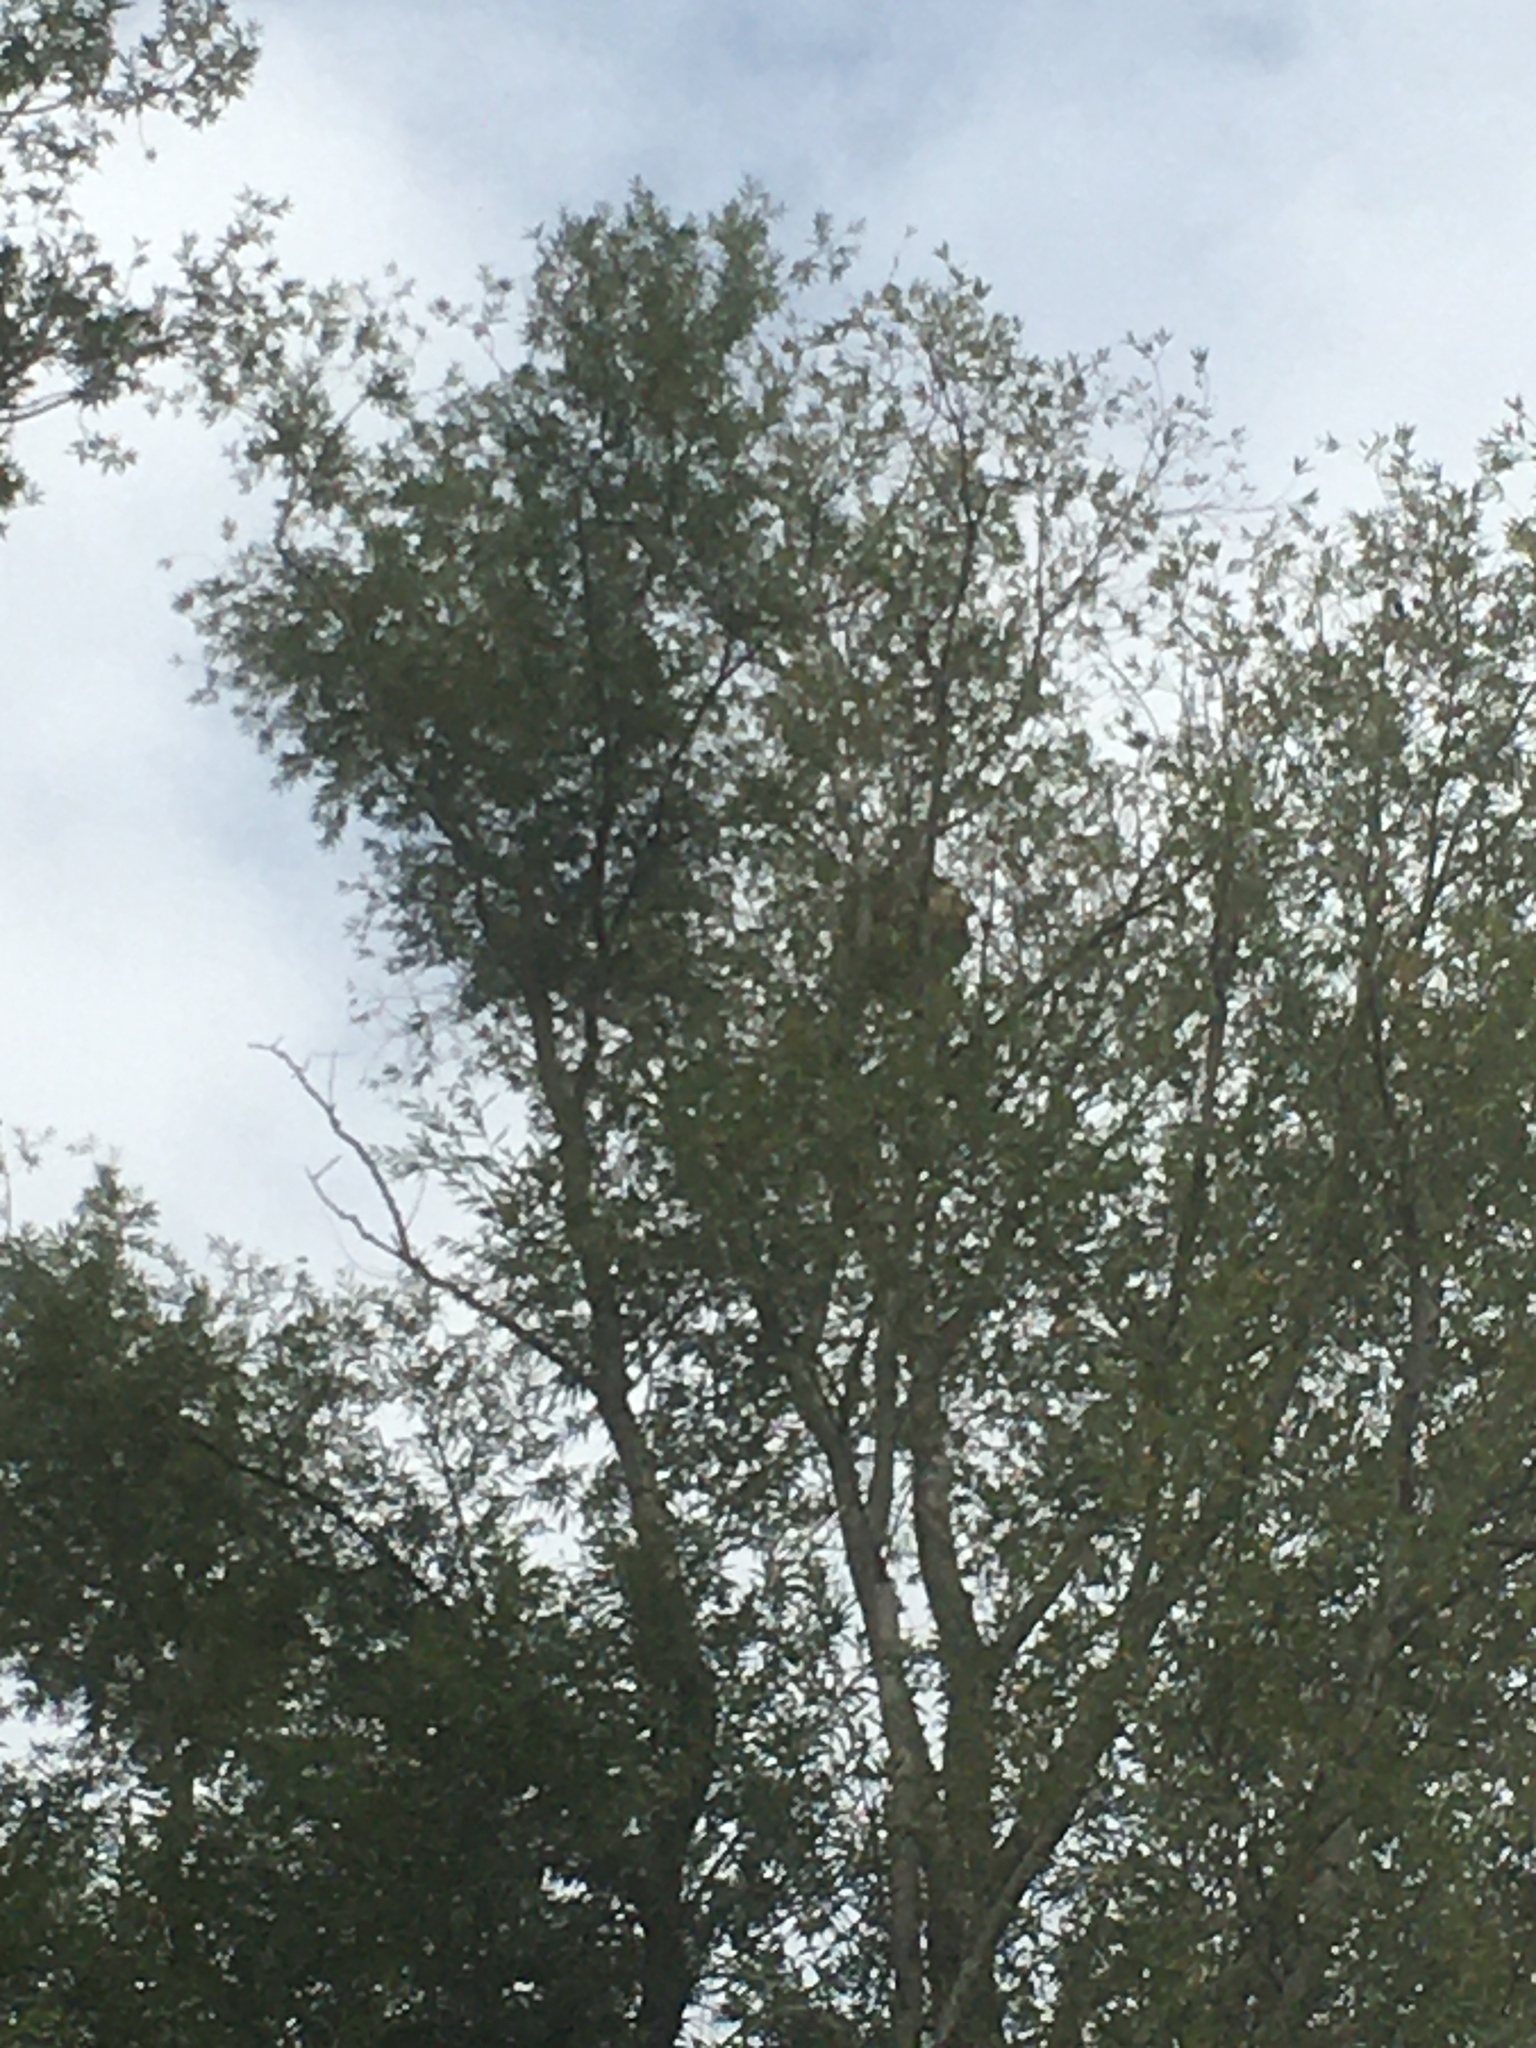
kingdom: Animalia
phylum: Arthropoda
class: Insecta
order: Hymenoptera
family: Vespidae
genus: Vespa
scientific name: Vespa velutina
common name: Asian hornet
